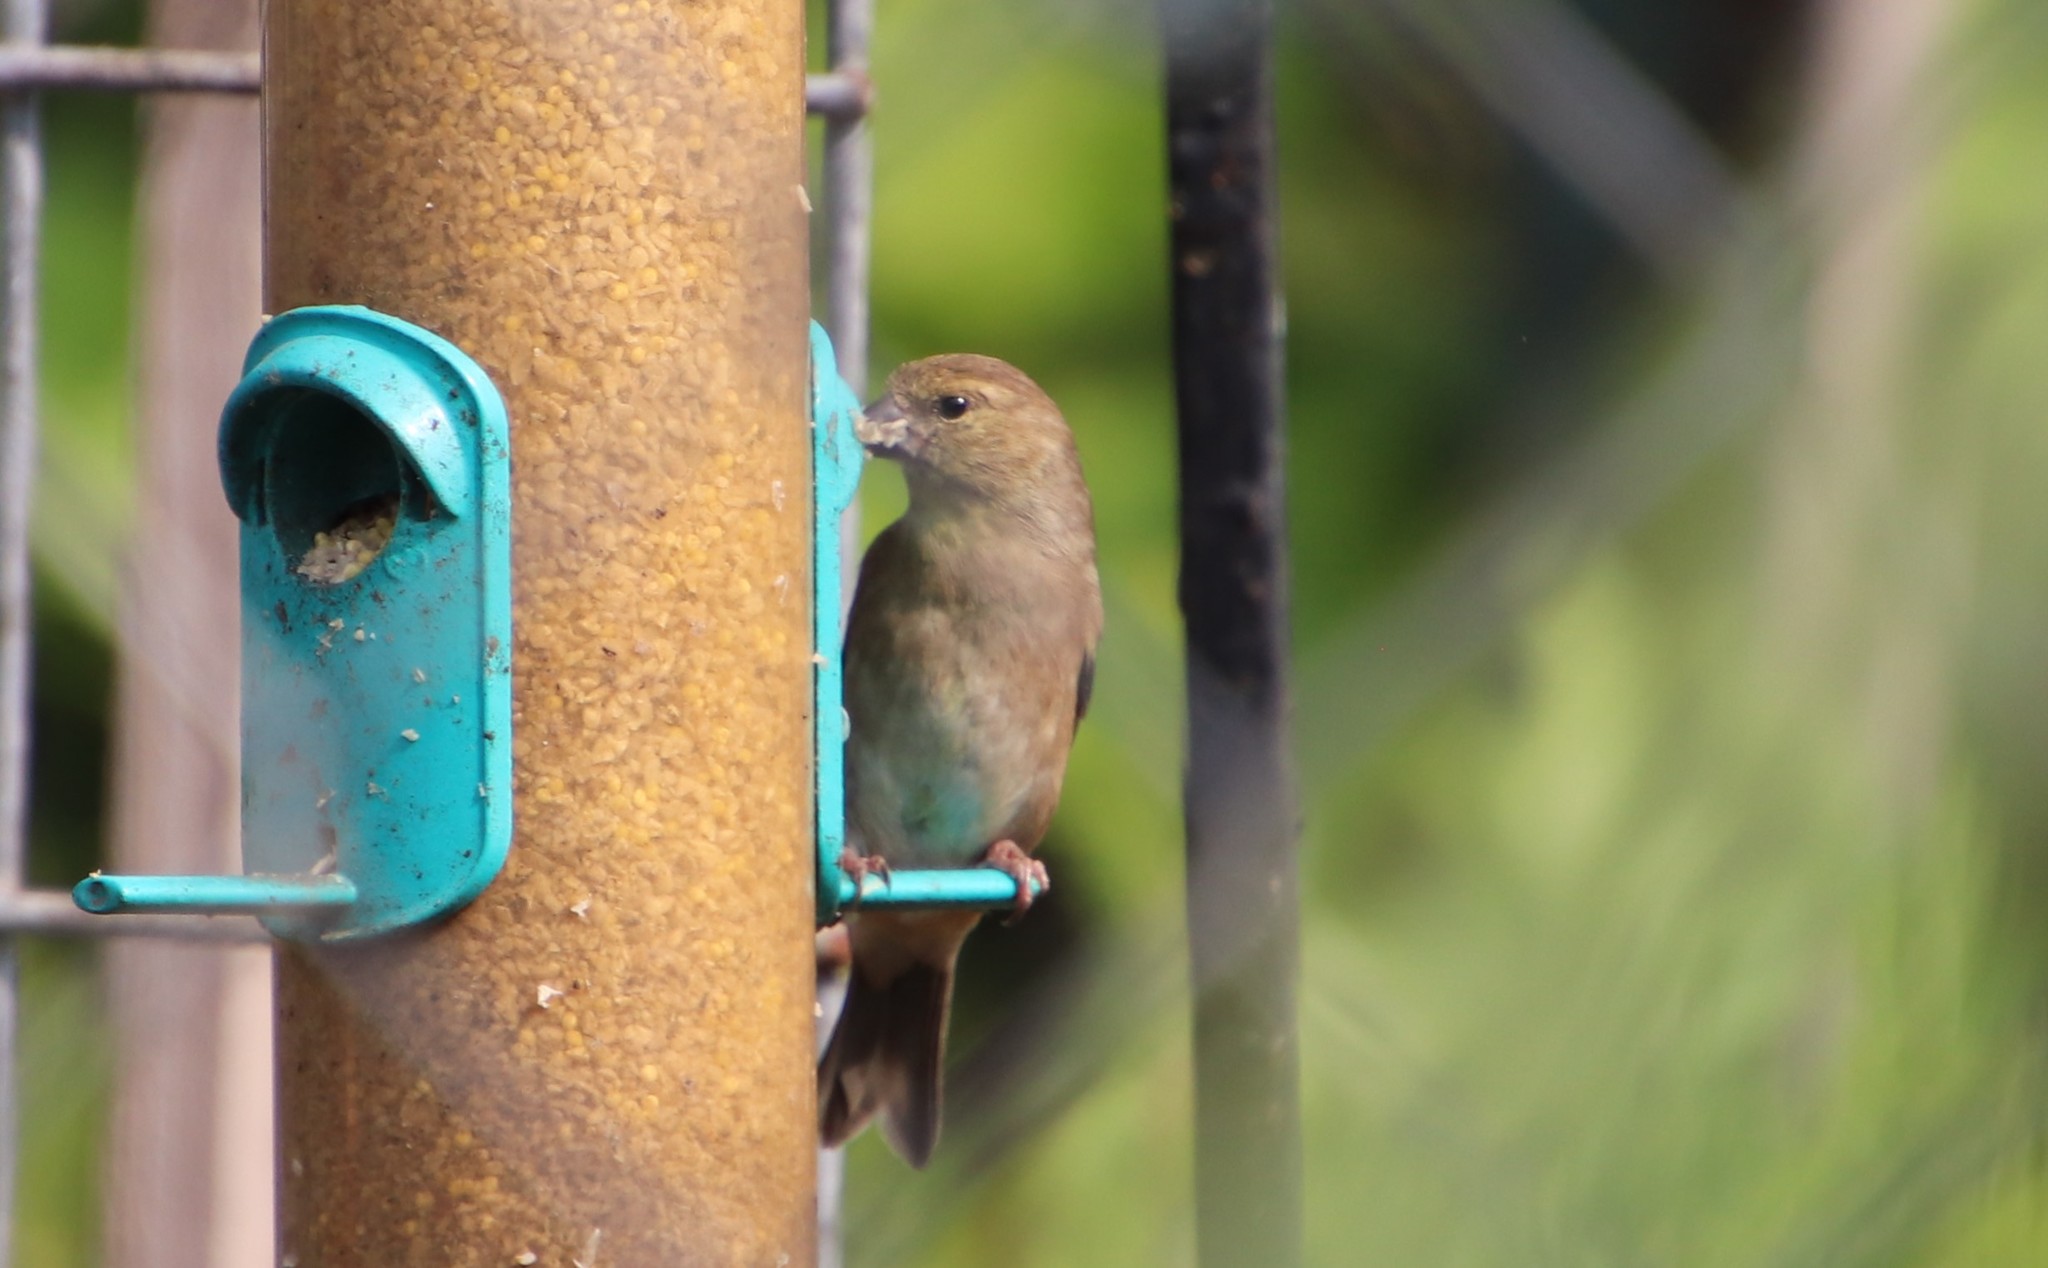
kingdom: Animalia
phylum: Chordata
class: Aves
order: Passeriformes
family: Fringillidae
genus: Spinus
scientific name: Spinus tristis
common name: American goldfinch
